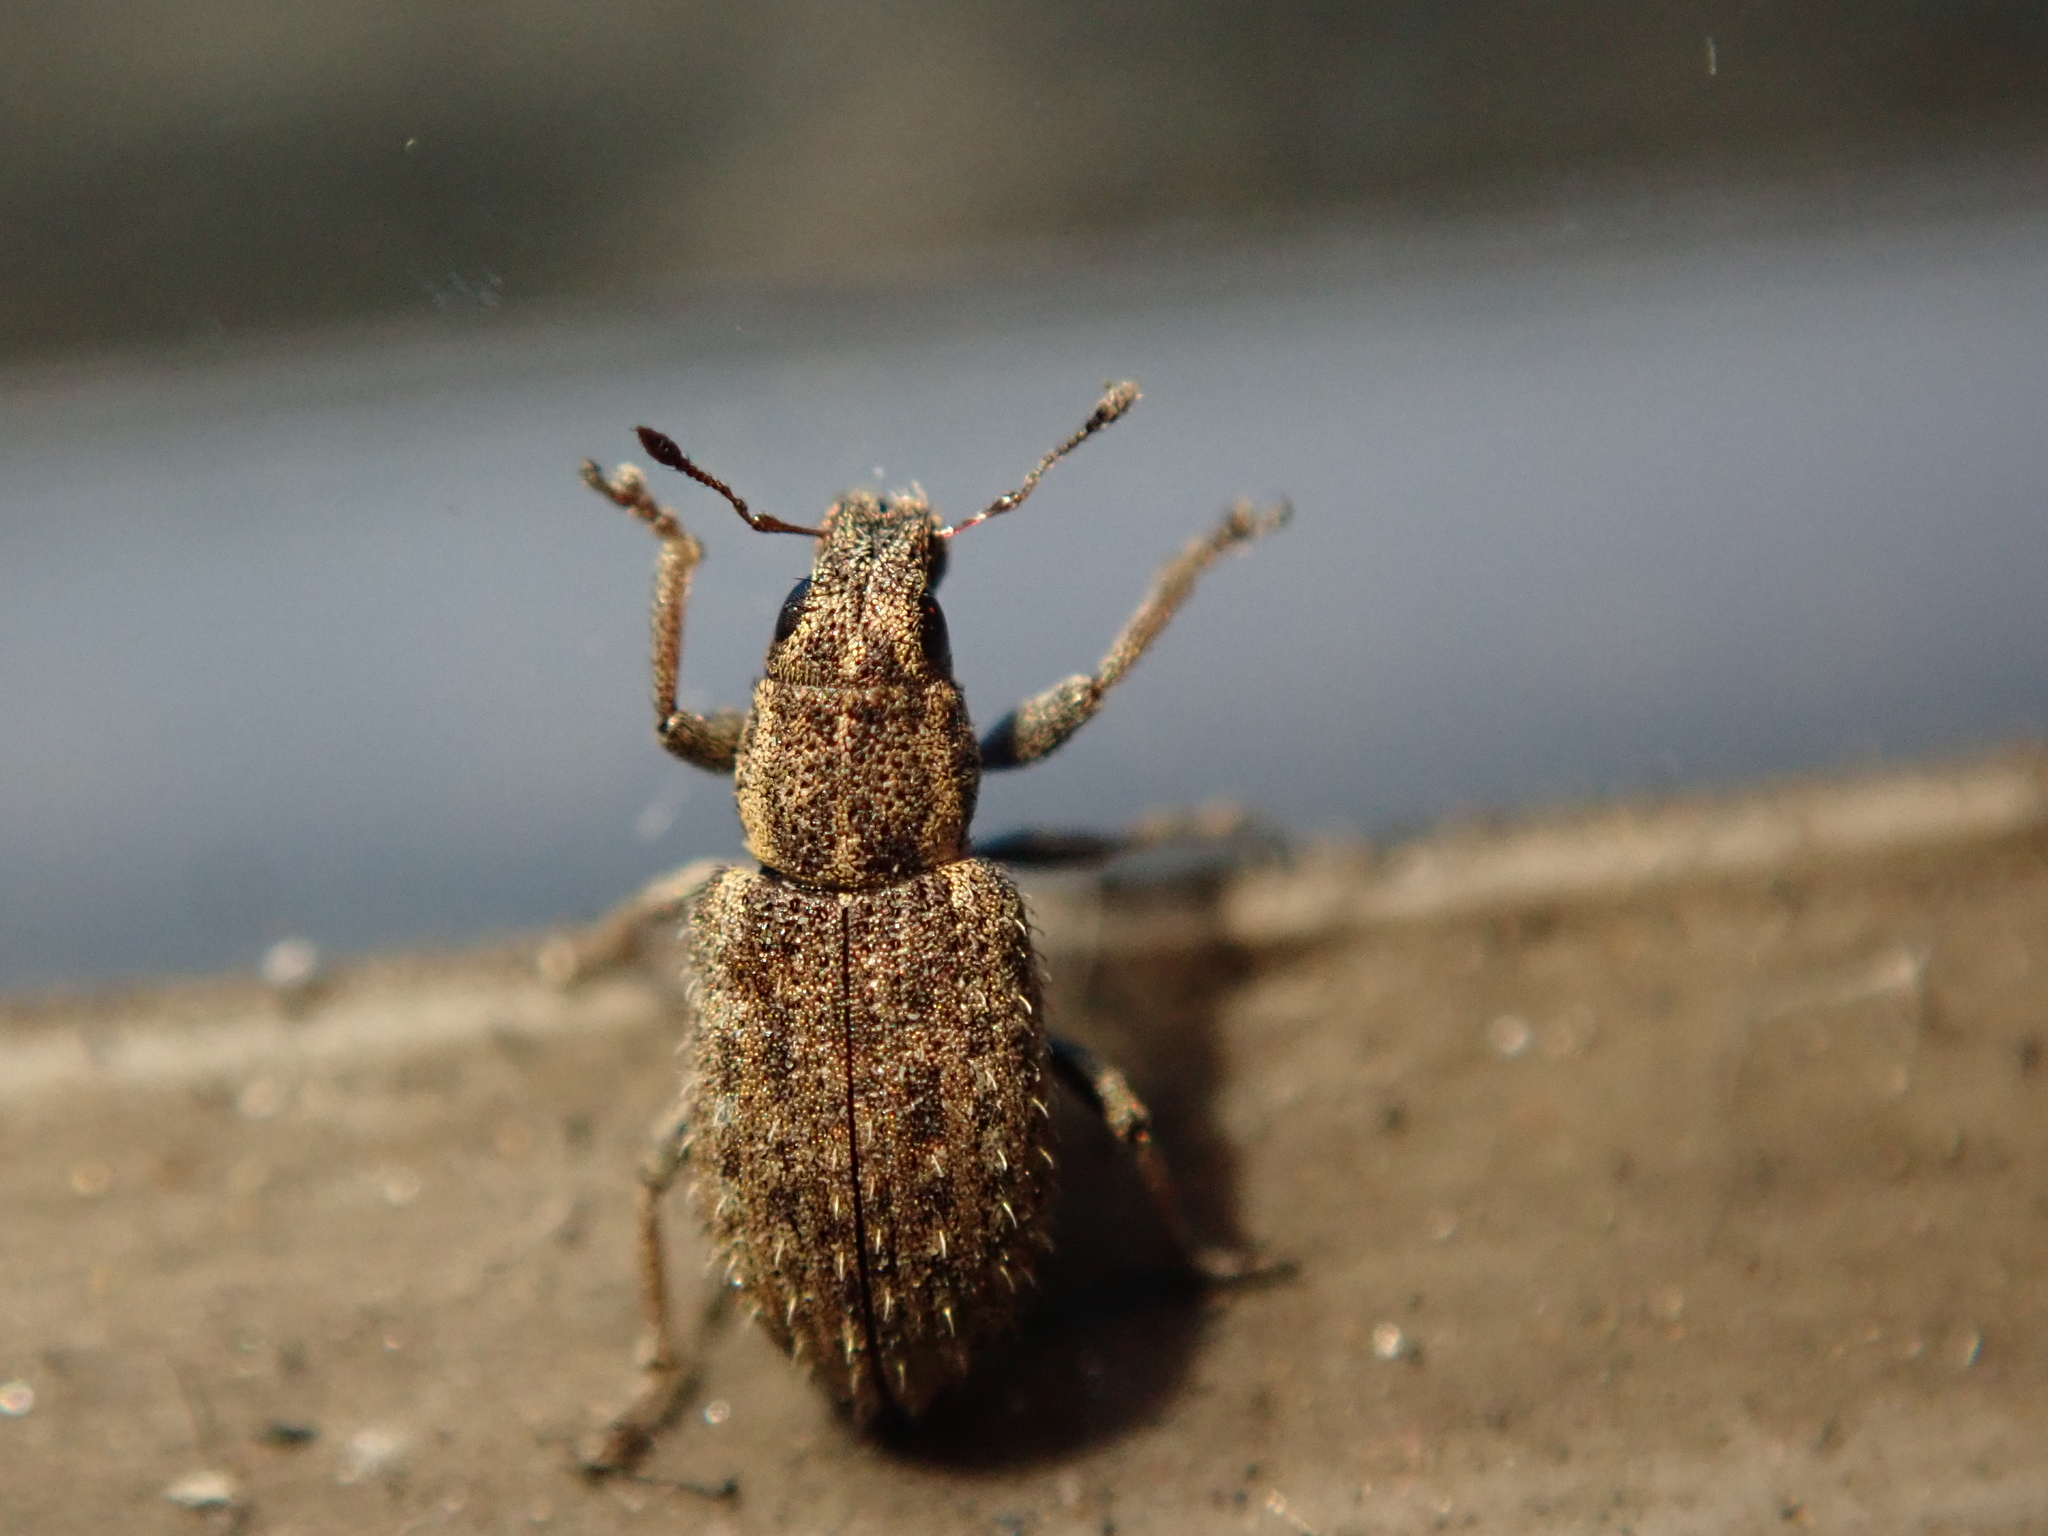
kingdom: Animalia
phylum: Arthropoda
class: Insecta
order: Coleoptera
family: Curculionidae
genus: Sitona
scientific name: Sitona hispidulus
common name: Clover weevil
